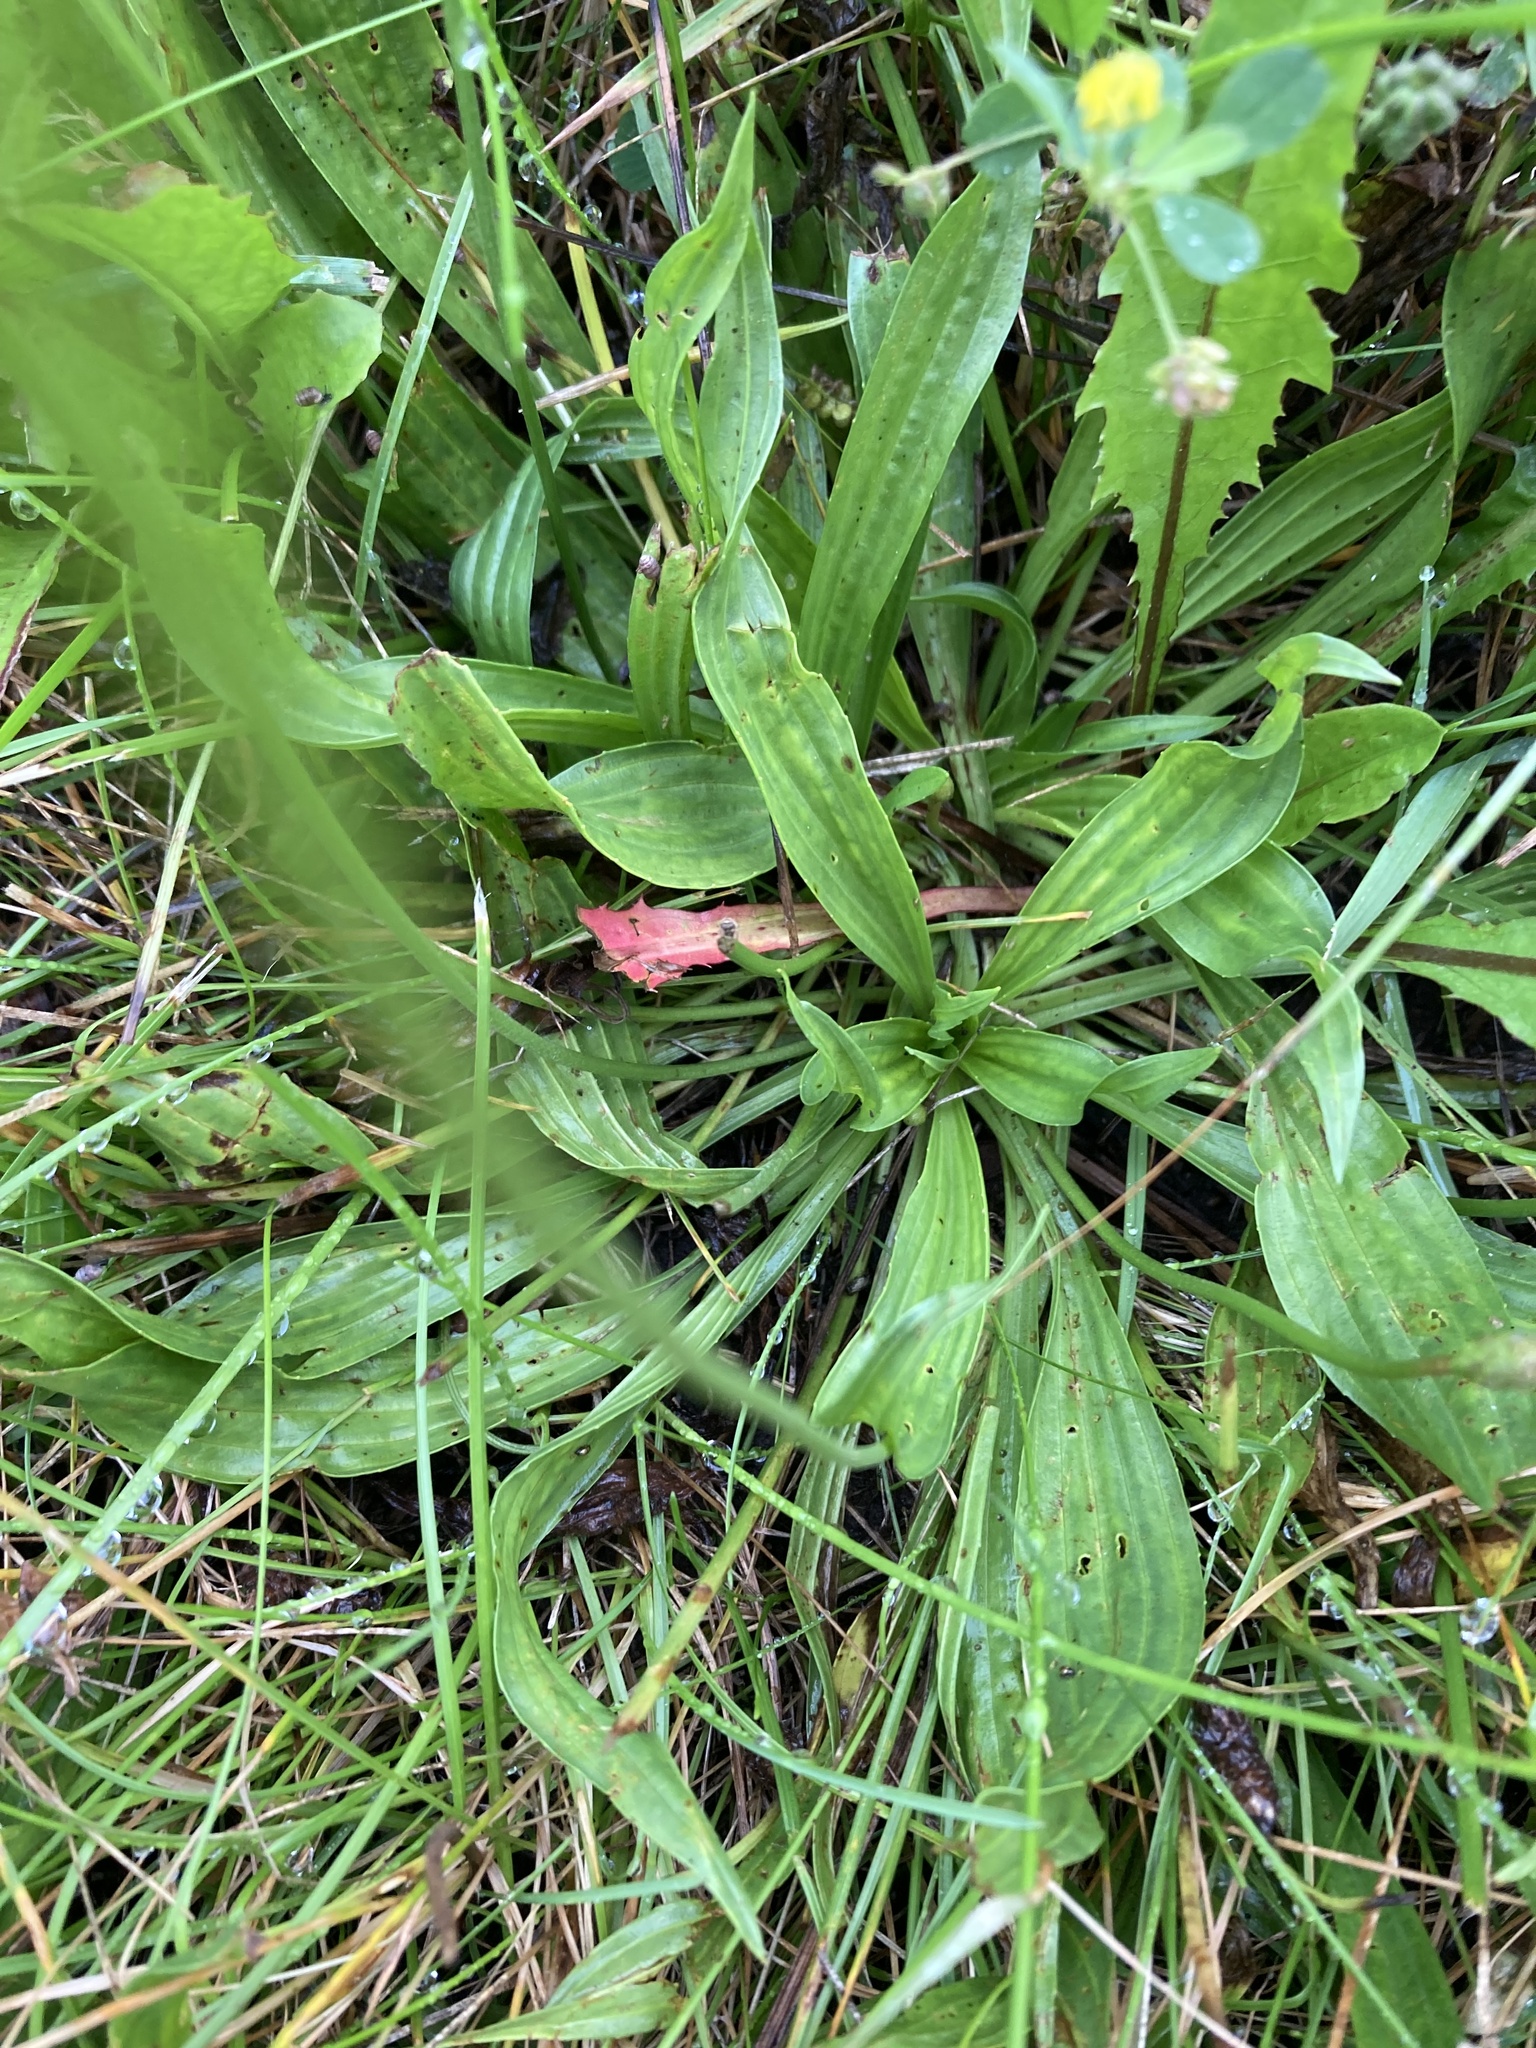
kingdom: Plantae
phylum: Tracheophyta
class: Magnoliopsida
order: Lamiales
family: Plantaginaceae
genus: Plantago
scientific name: Plantago lanceolata
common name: Ribwort plantain
